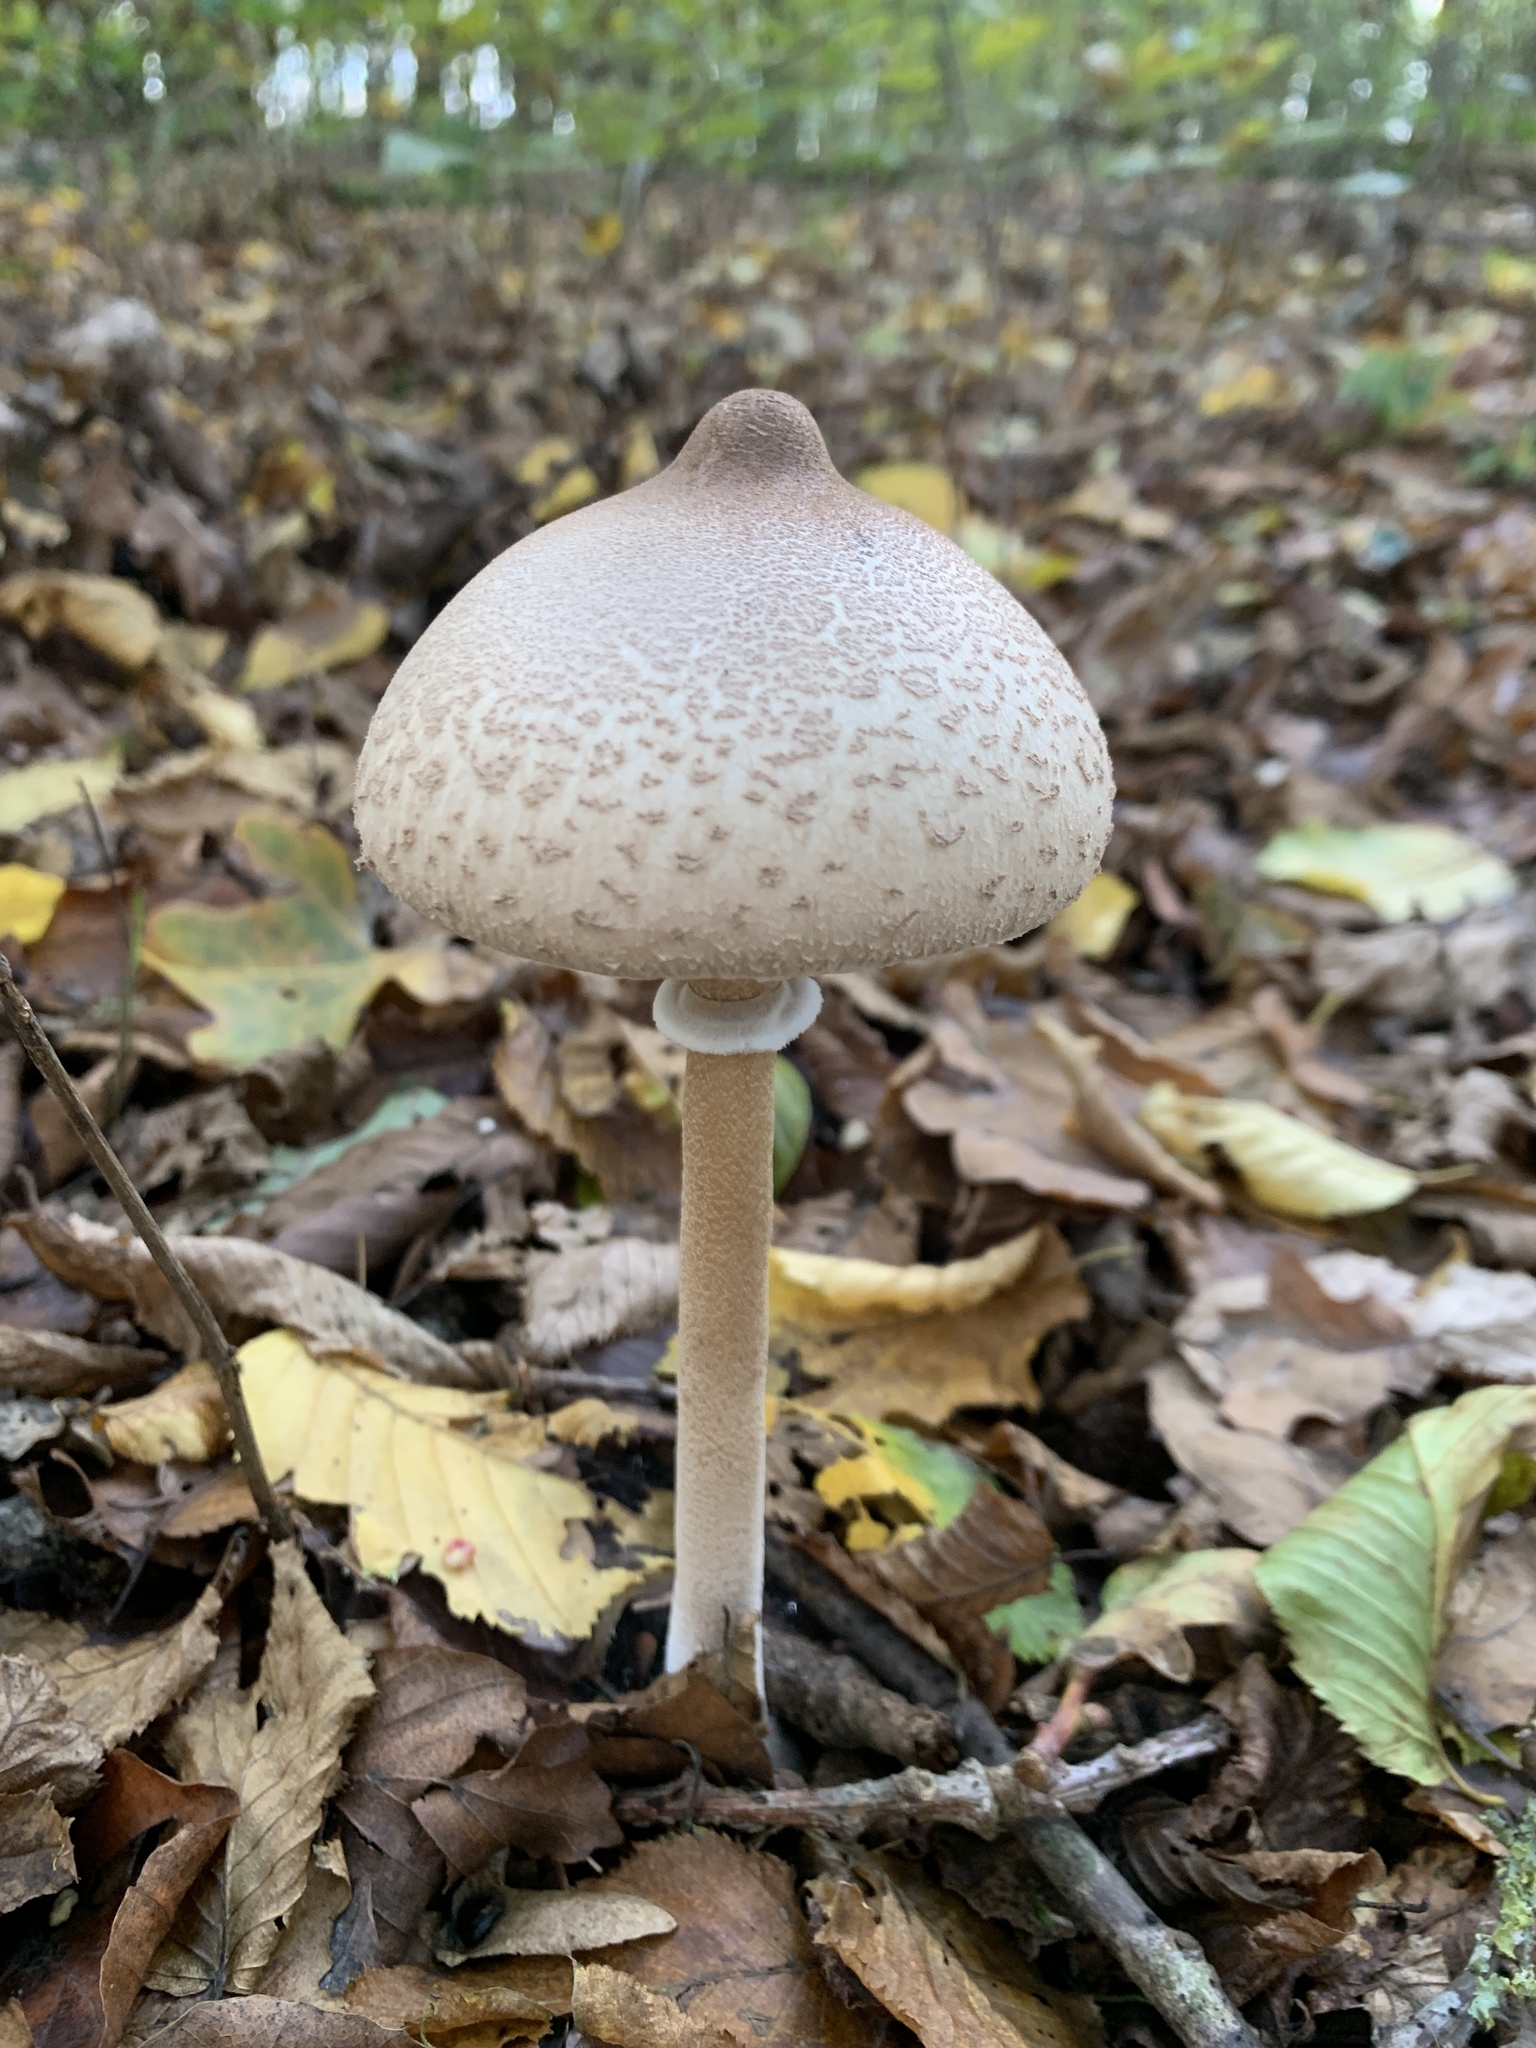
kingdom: Fungi
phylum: Basidiomycota
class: Agaricomycetes
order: Agaricales
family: Agaricaceae
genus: Macrolepiota
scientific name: Macrolepiota mastoidea
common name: Slender parasol
